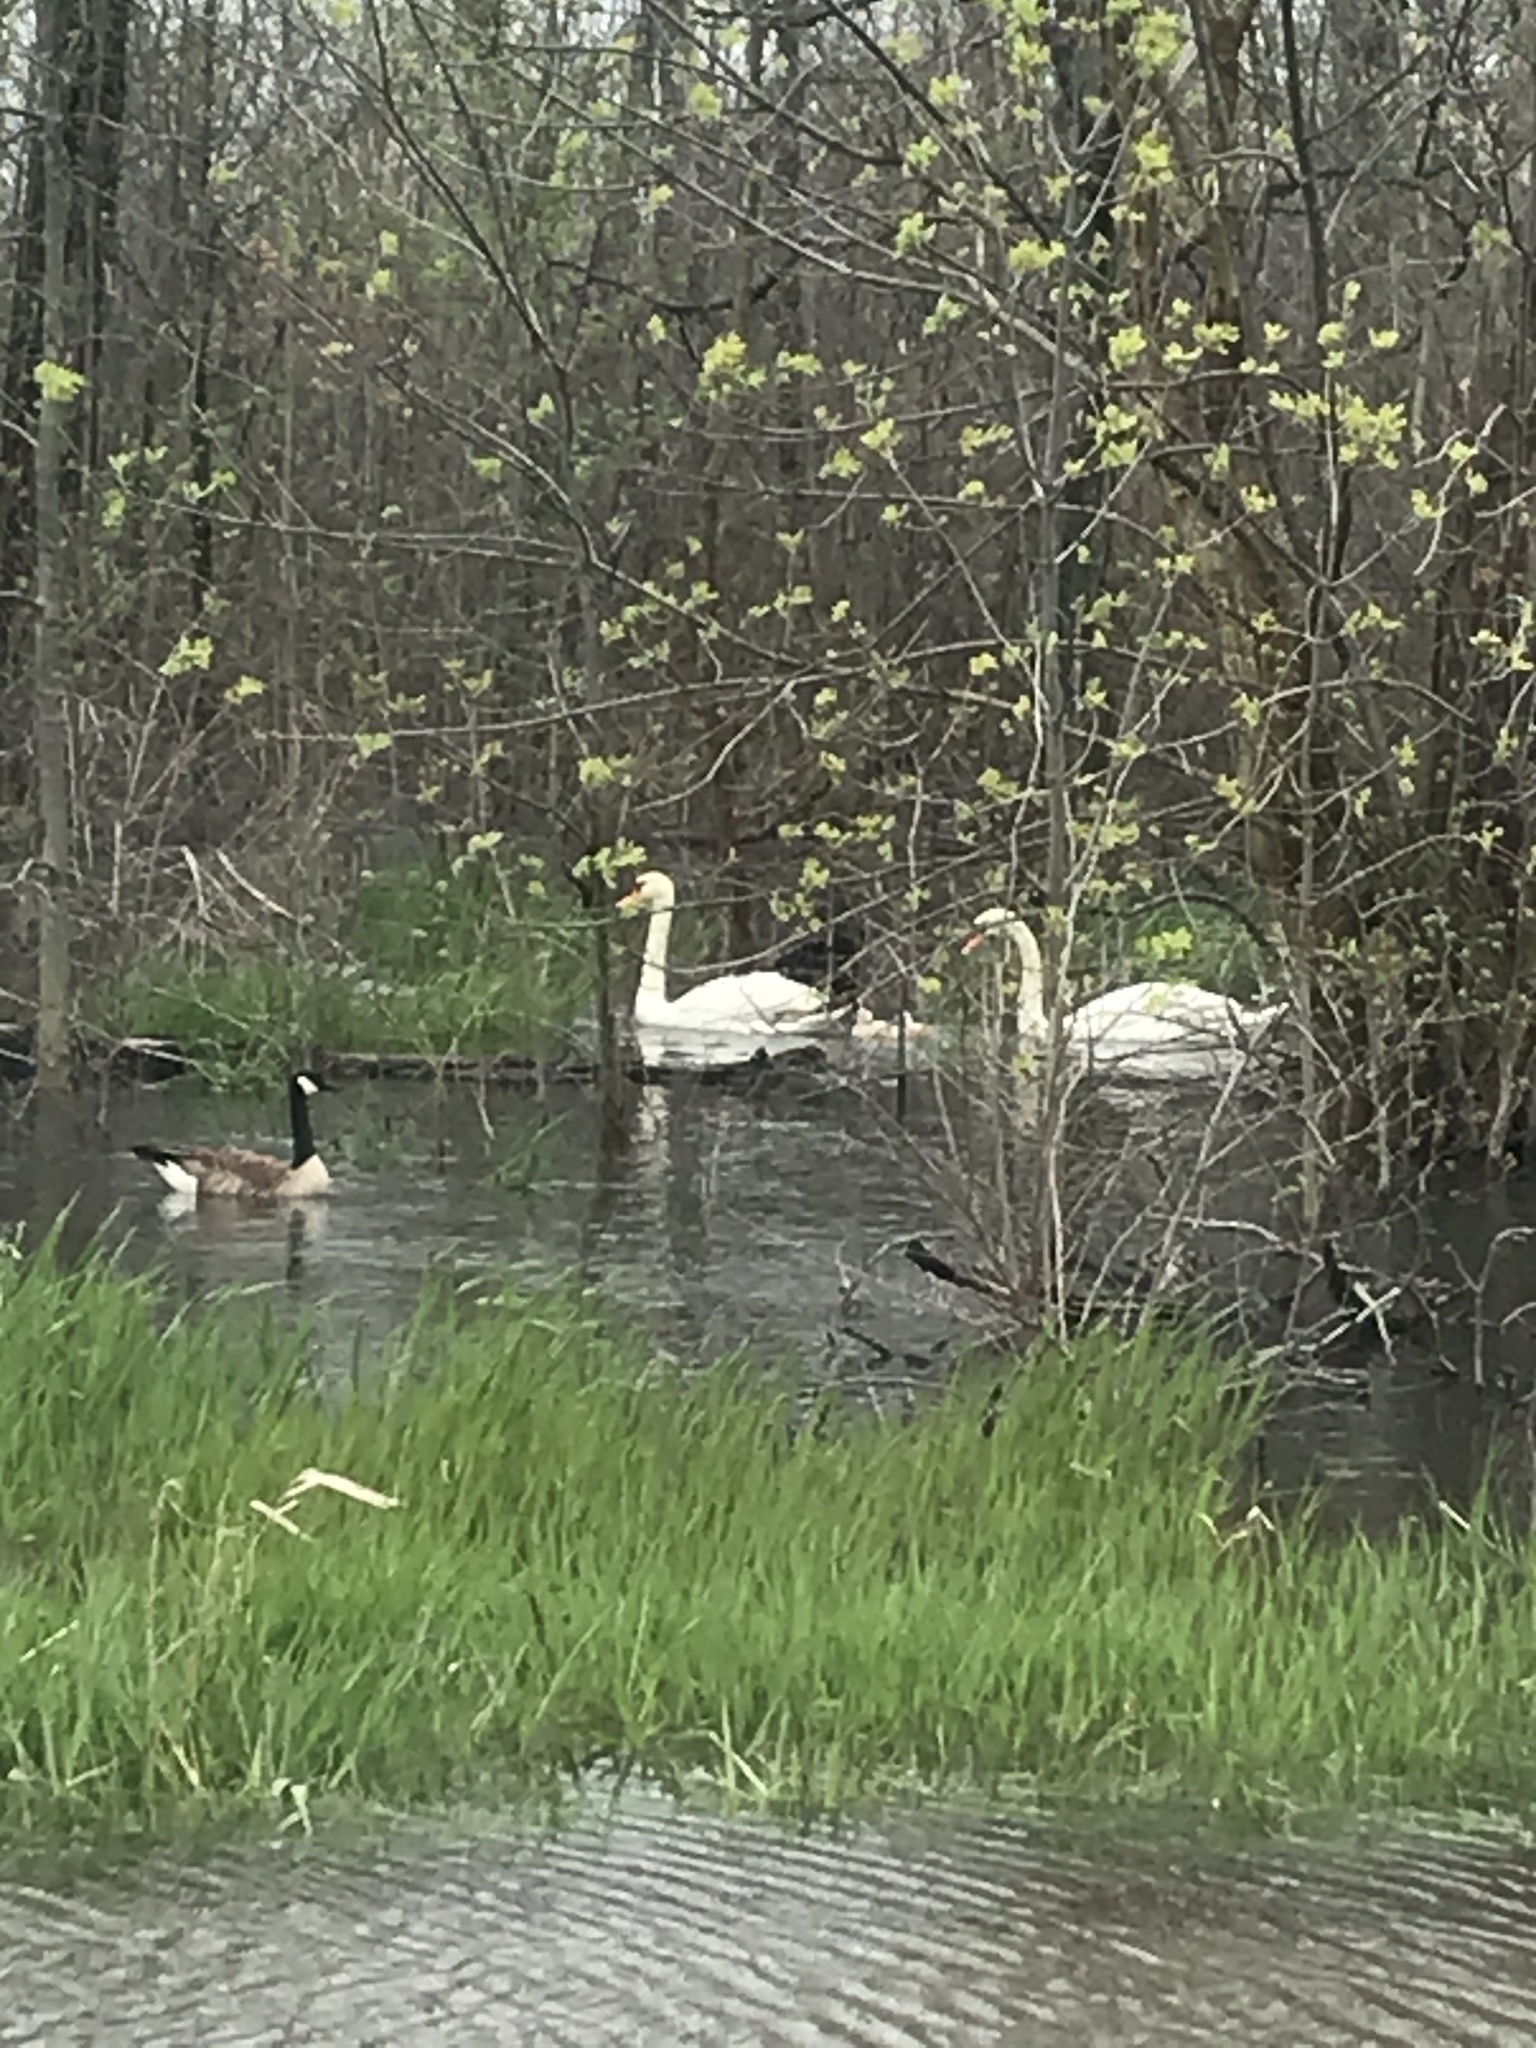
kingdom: Animalia
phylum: Chordata
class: Aves
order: Anseriformes
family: Anatidae
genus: Cygnus
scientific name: Cygnus olor
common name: Mute swan
